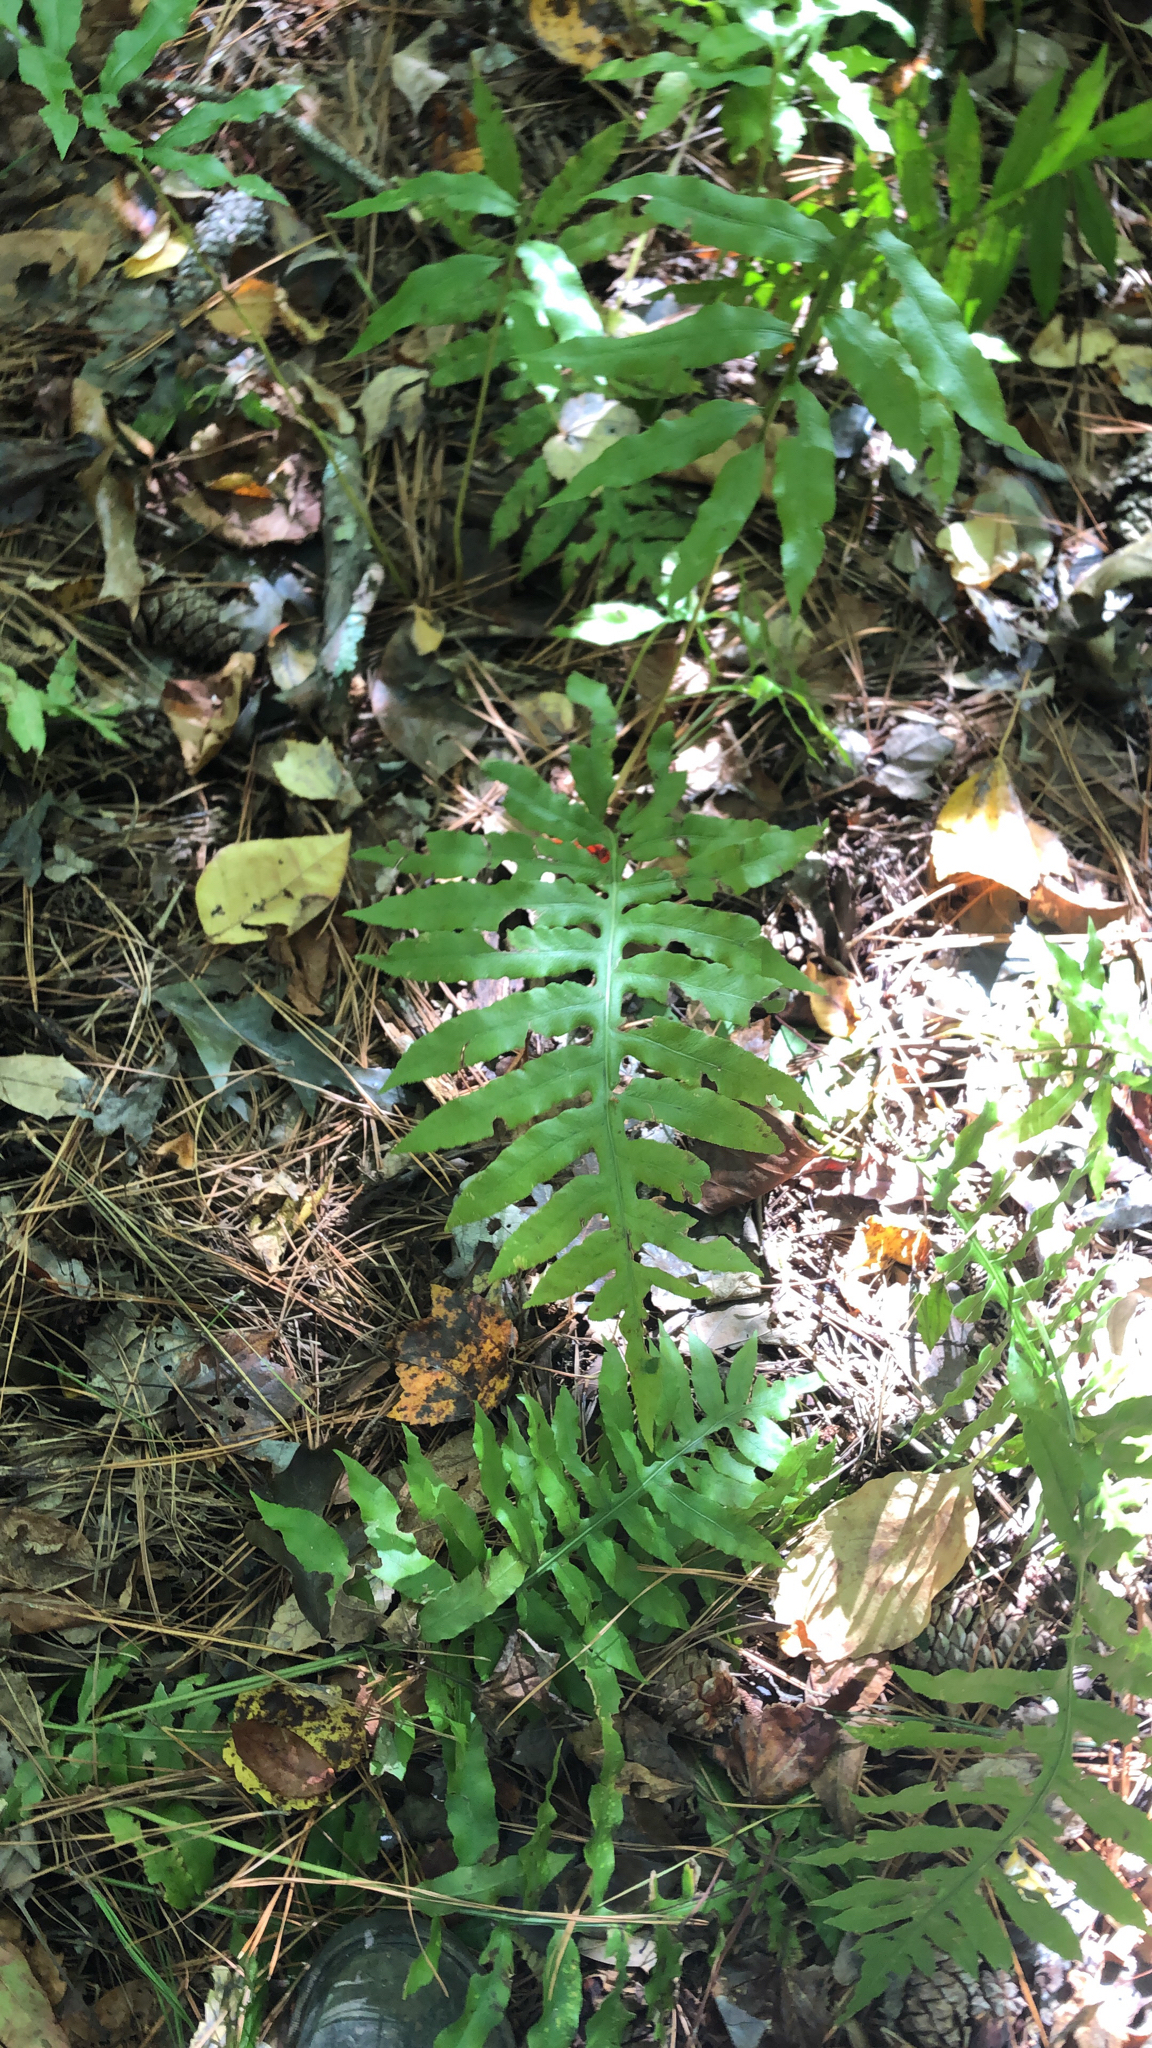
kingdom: Plantae
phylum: Tracheophyta
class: Polypodiopsida
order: Polypodiales
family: Blechnaceae
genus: Lorinseria
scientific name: Lorinseria areolata
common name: Dwarf chain fern
